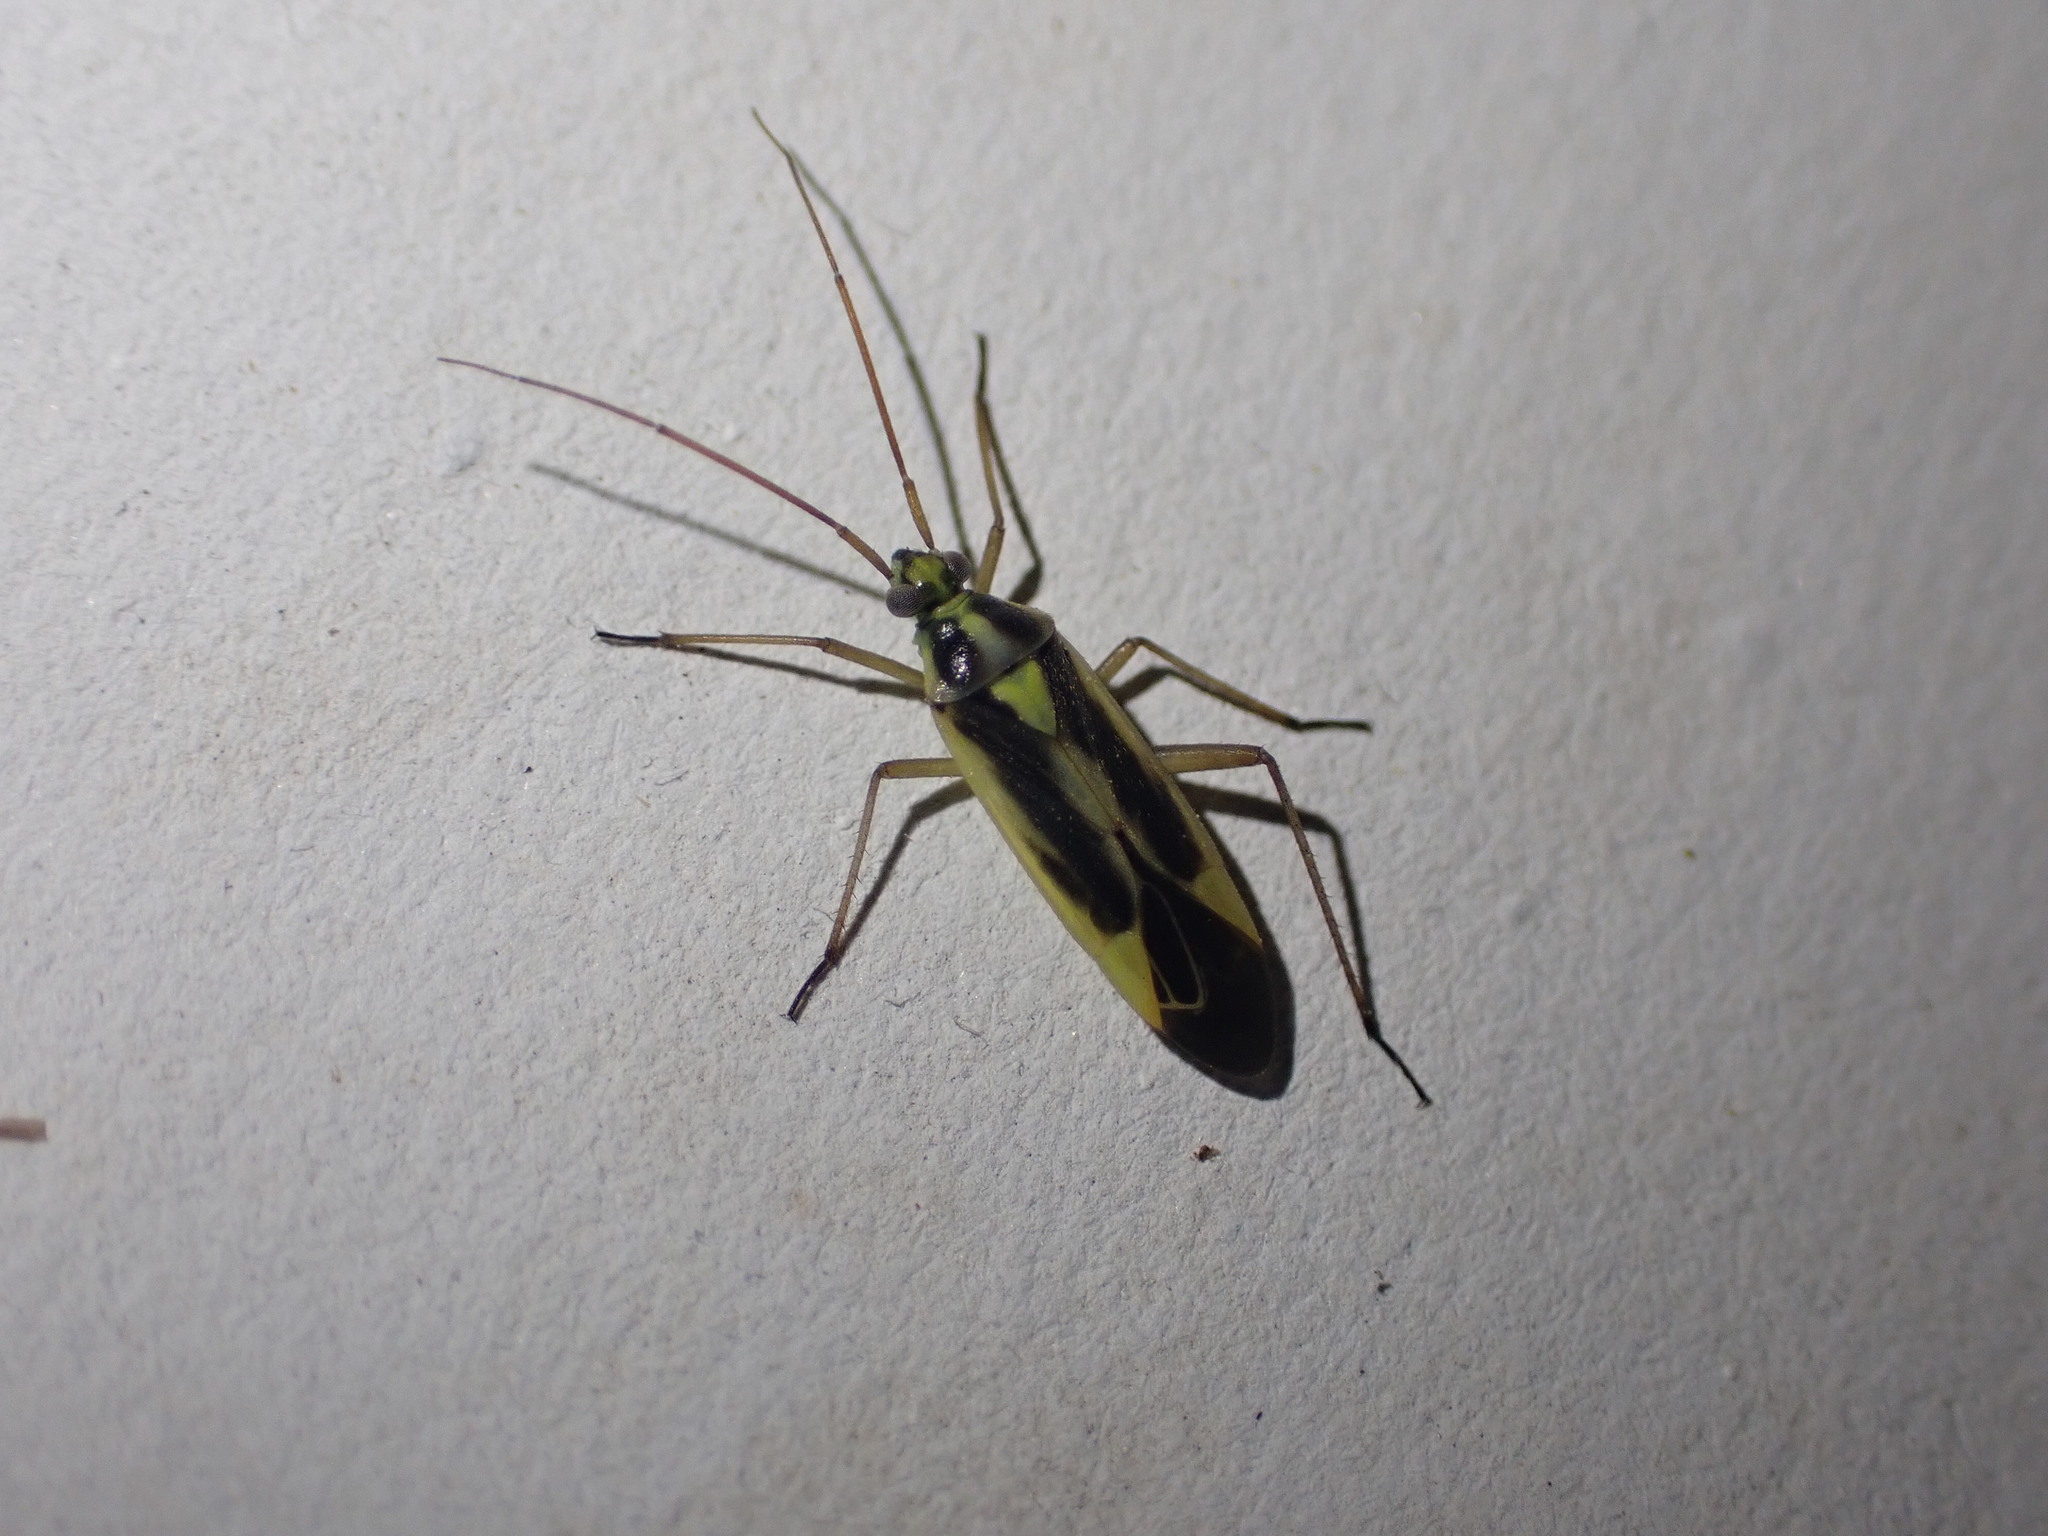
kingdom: Animalia
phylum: Arthropoda
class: Insecta
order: Hemiptera
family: Miridae
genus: Stenotus
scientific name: Stenotus binotatus
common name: Plant bug
